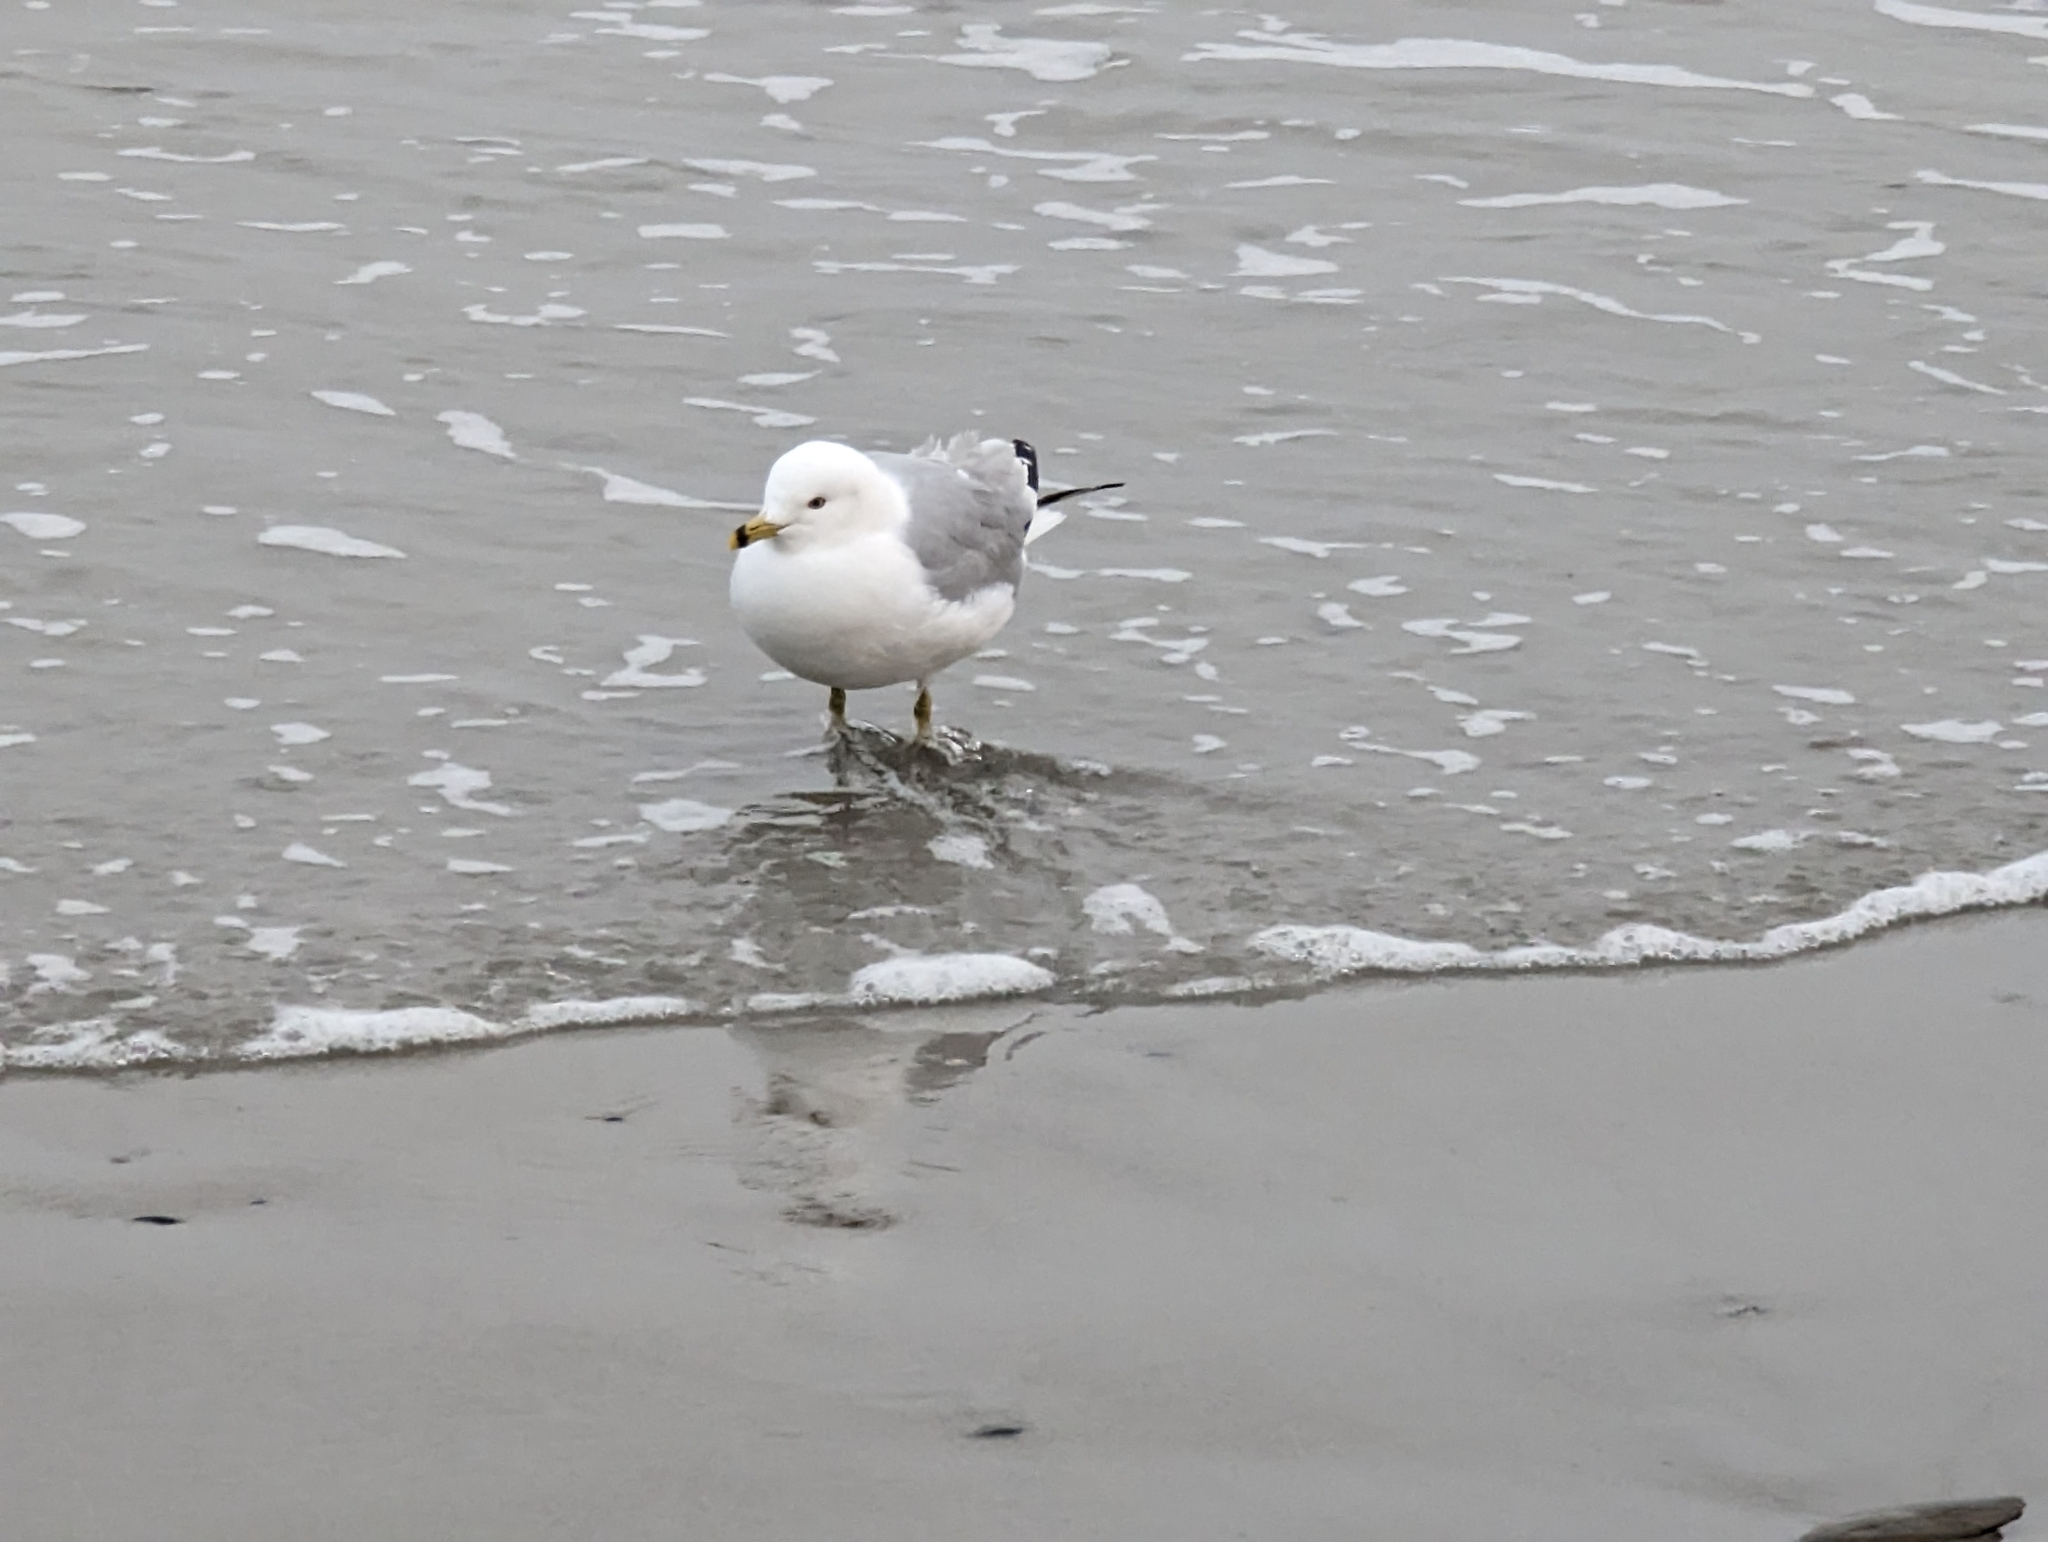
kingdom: Animalia
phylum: Chordata
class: Aves
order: Charadriiformes
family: Laridae
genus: Larus
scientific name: Larus delawarensis
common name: Ring-billed gull
